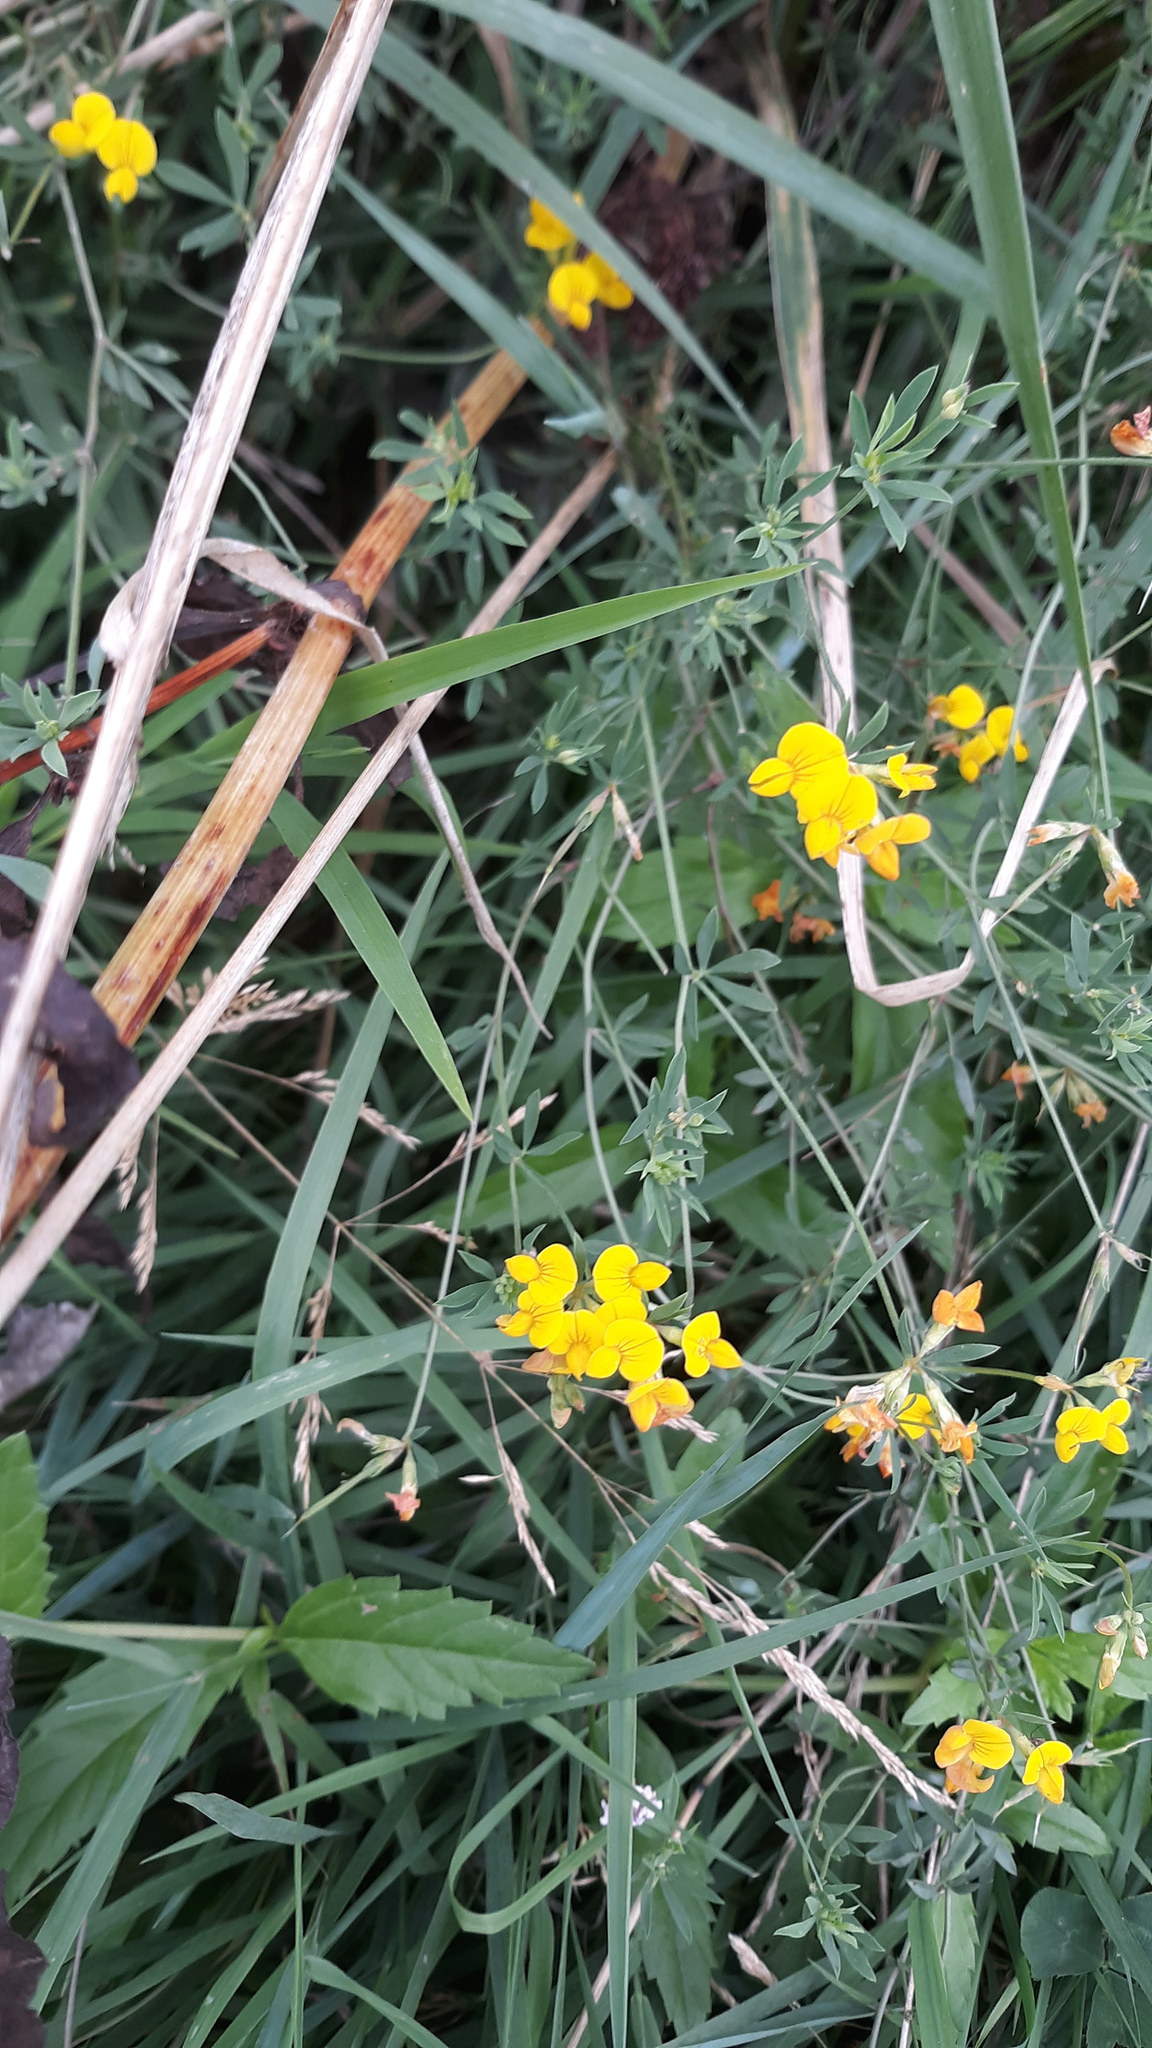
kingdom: Plantae
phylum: Tracheophyta
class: Magnoliopsida
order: Fabales
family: Fabaceae
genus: Lotus
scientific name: Lotus corniculatus
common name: Common bird's-foot-trefoil
